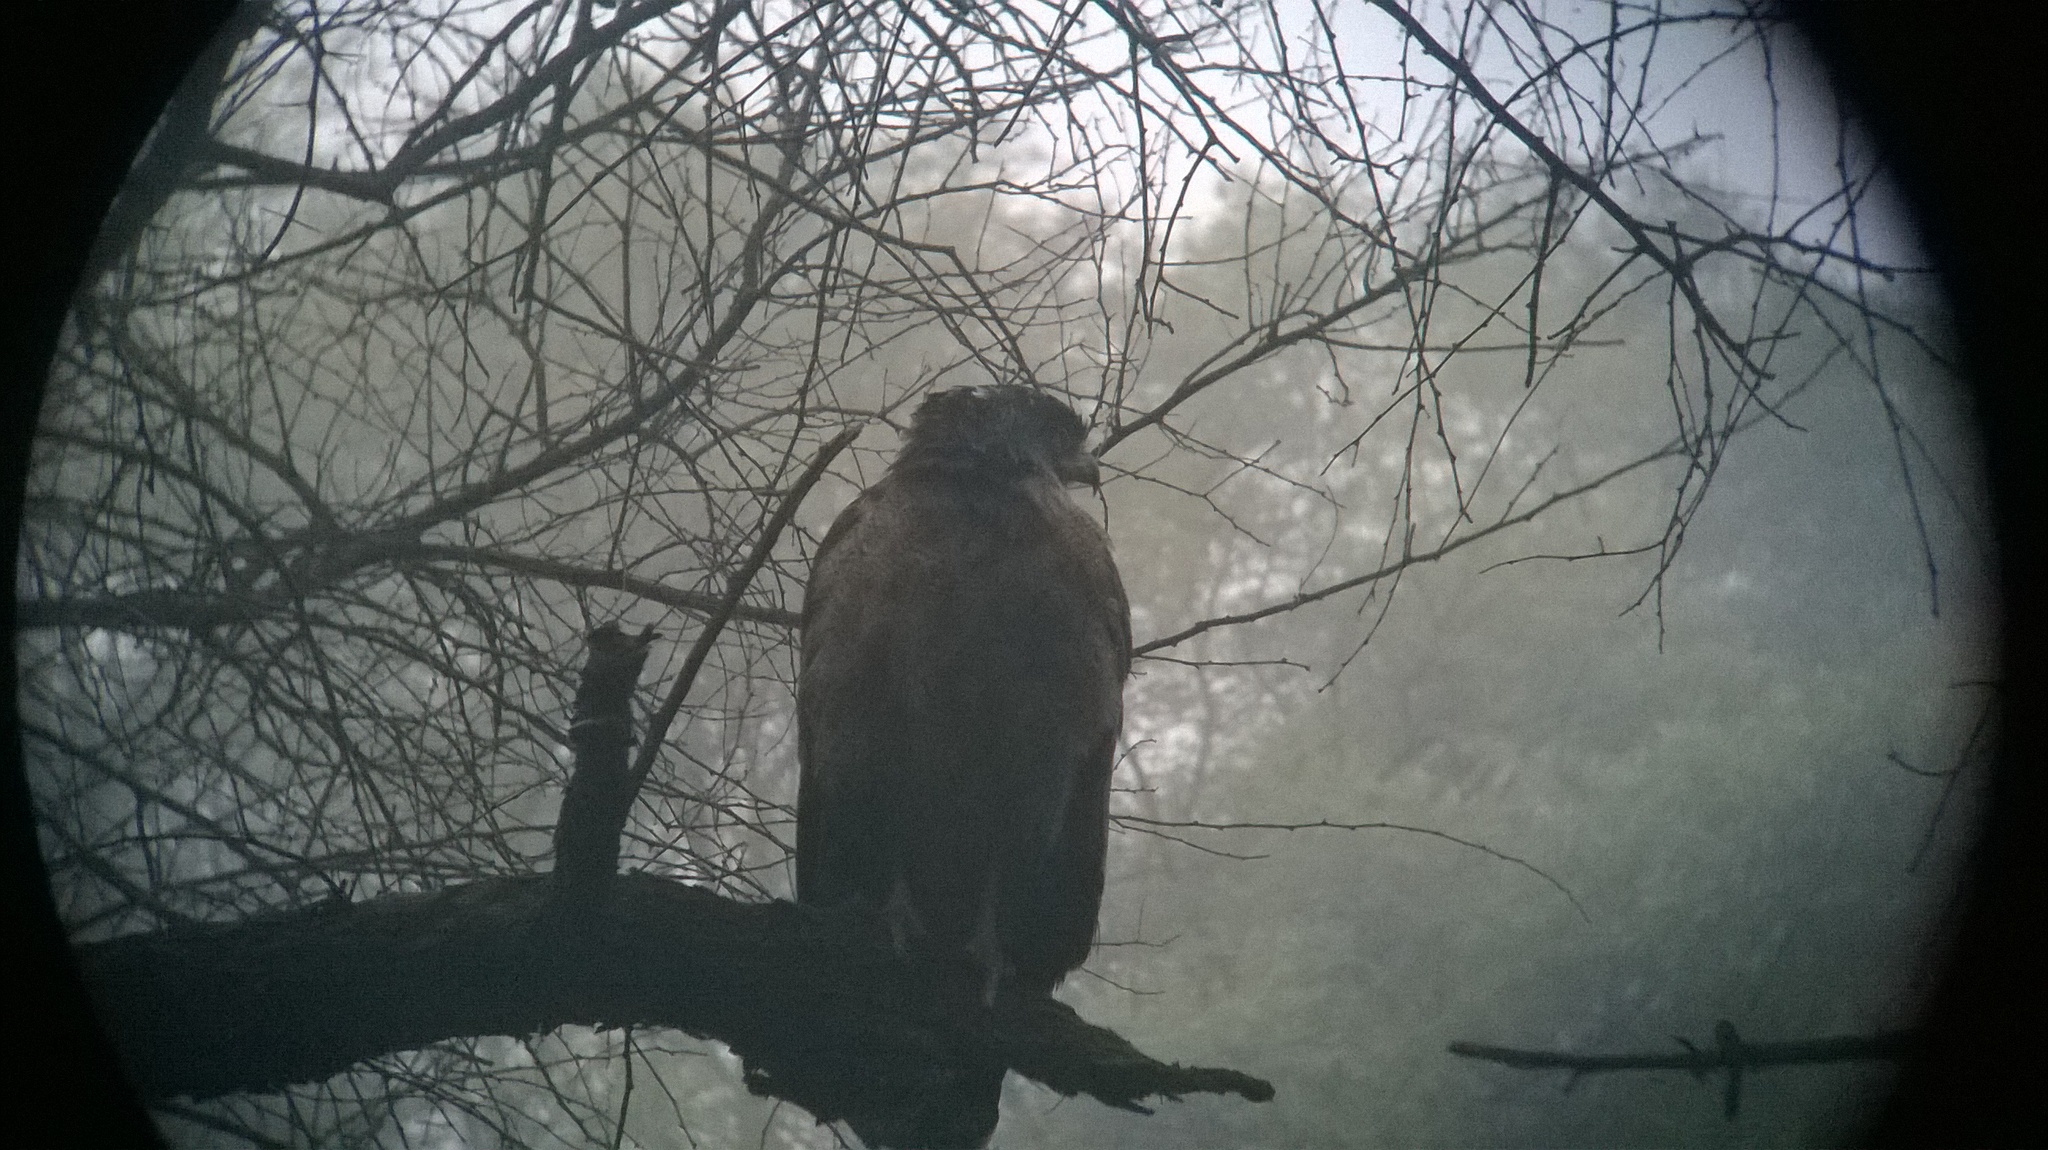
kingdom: Animalia
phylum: Chordata
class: Aves
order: Accipitriformes
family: Accipitridae
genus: Spilornis
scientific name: Spilornis cheela
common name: Crested serpent eagle
